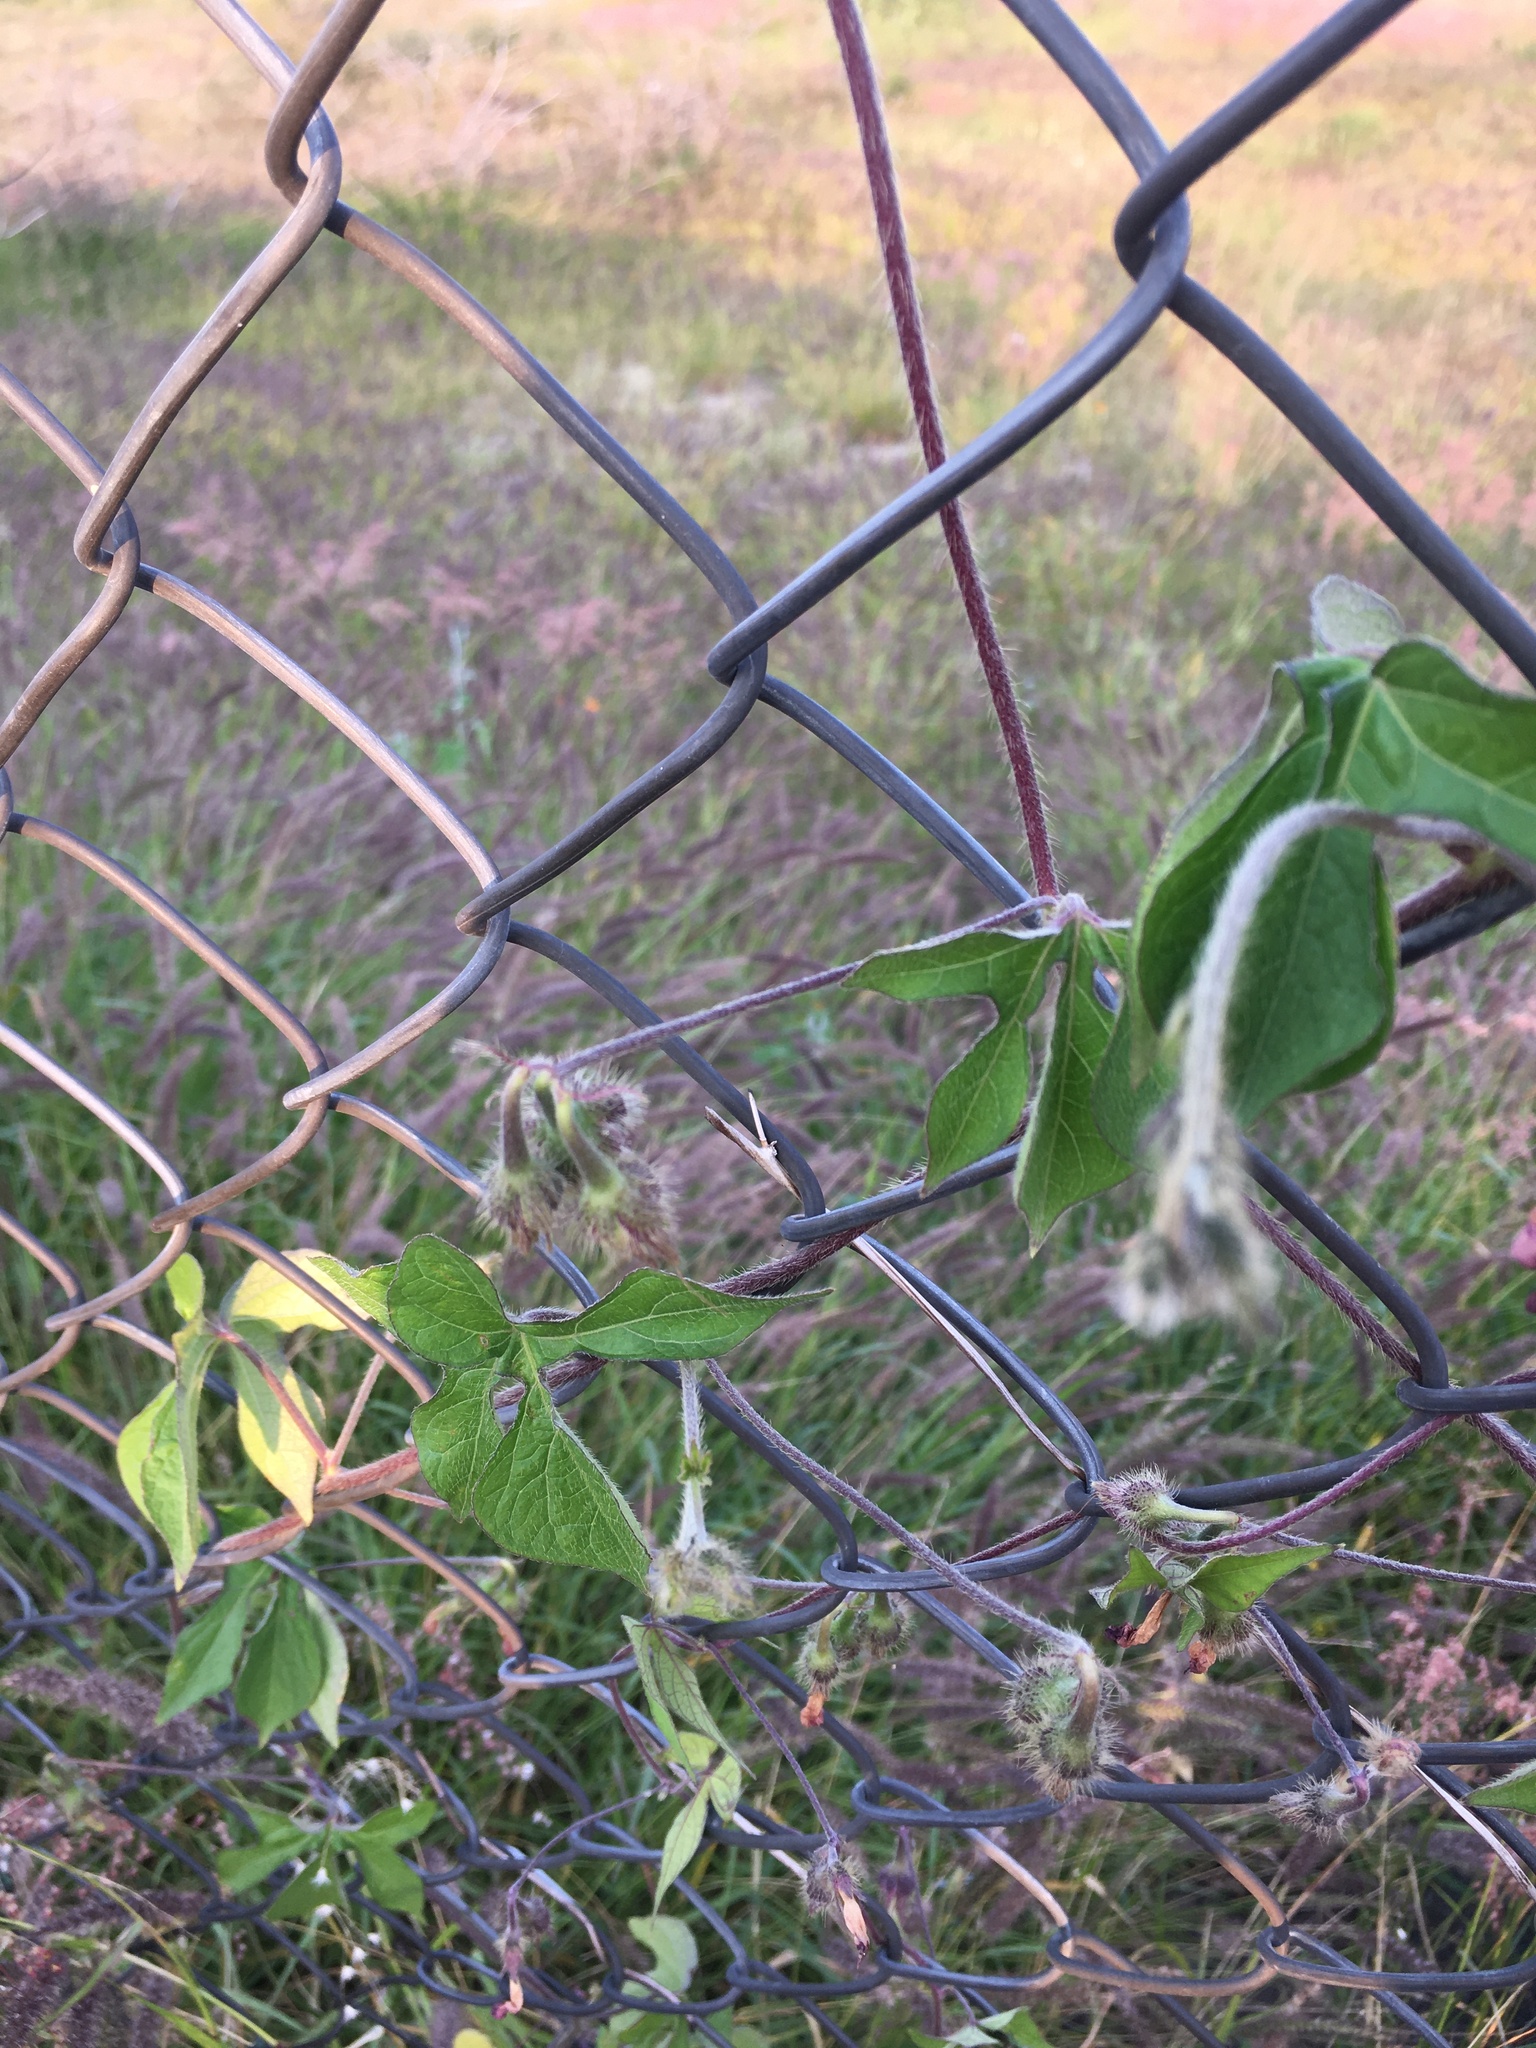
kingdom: Plantae
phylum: Tracheophyta
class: Magnoliopsida
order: Solanales
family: Convolvulaceae
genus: Ipomoea
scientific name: Ipomoea purpurea
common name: Common morning-glory
